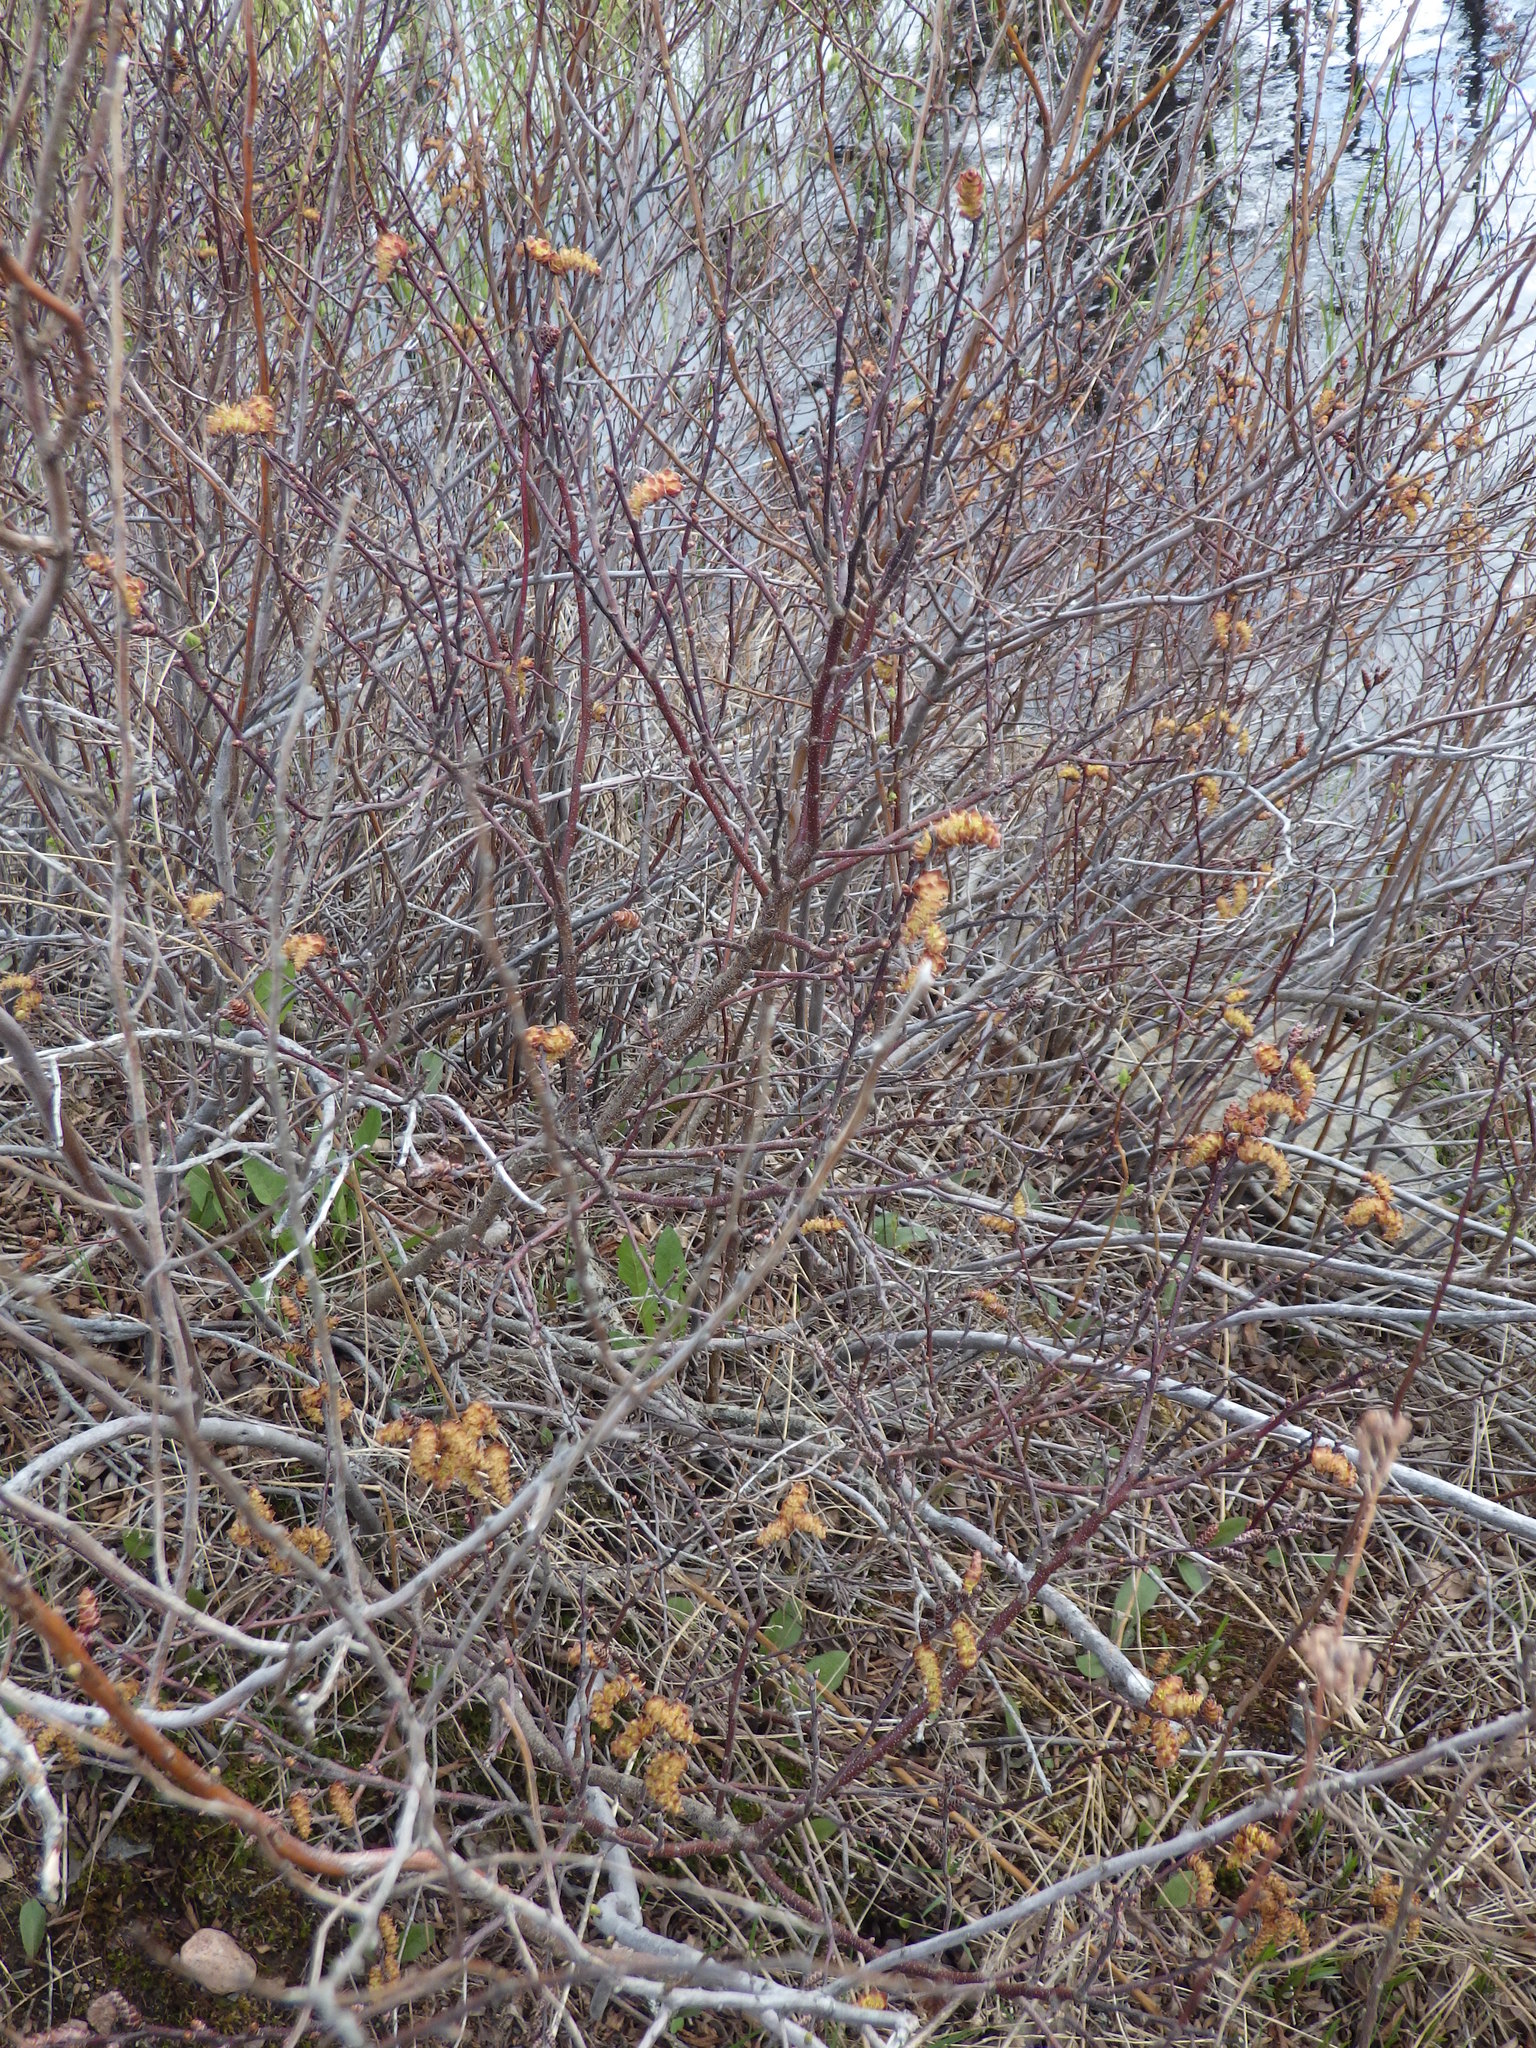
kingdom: Plantae
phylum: Tracheophyta
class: Magnoliopsida
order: Fagales
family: Myricaceae
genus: Myrica
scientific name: Myrica gale
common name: Sweet gale
